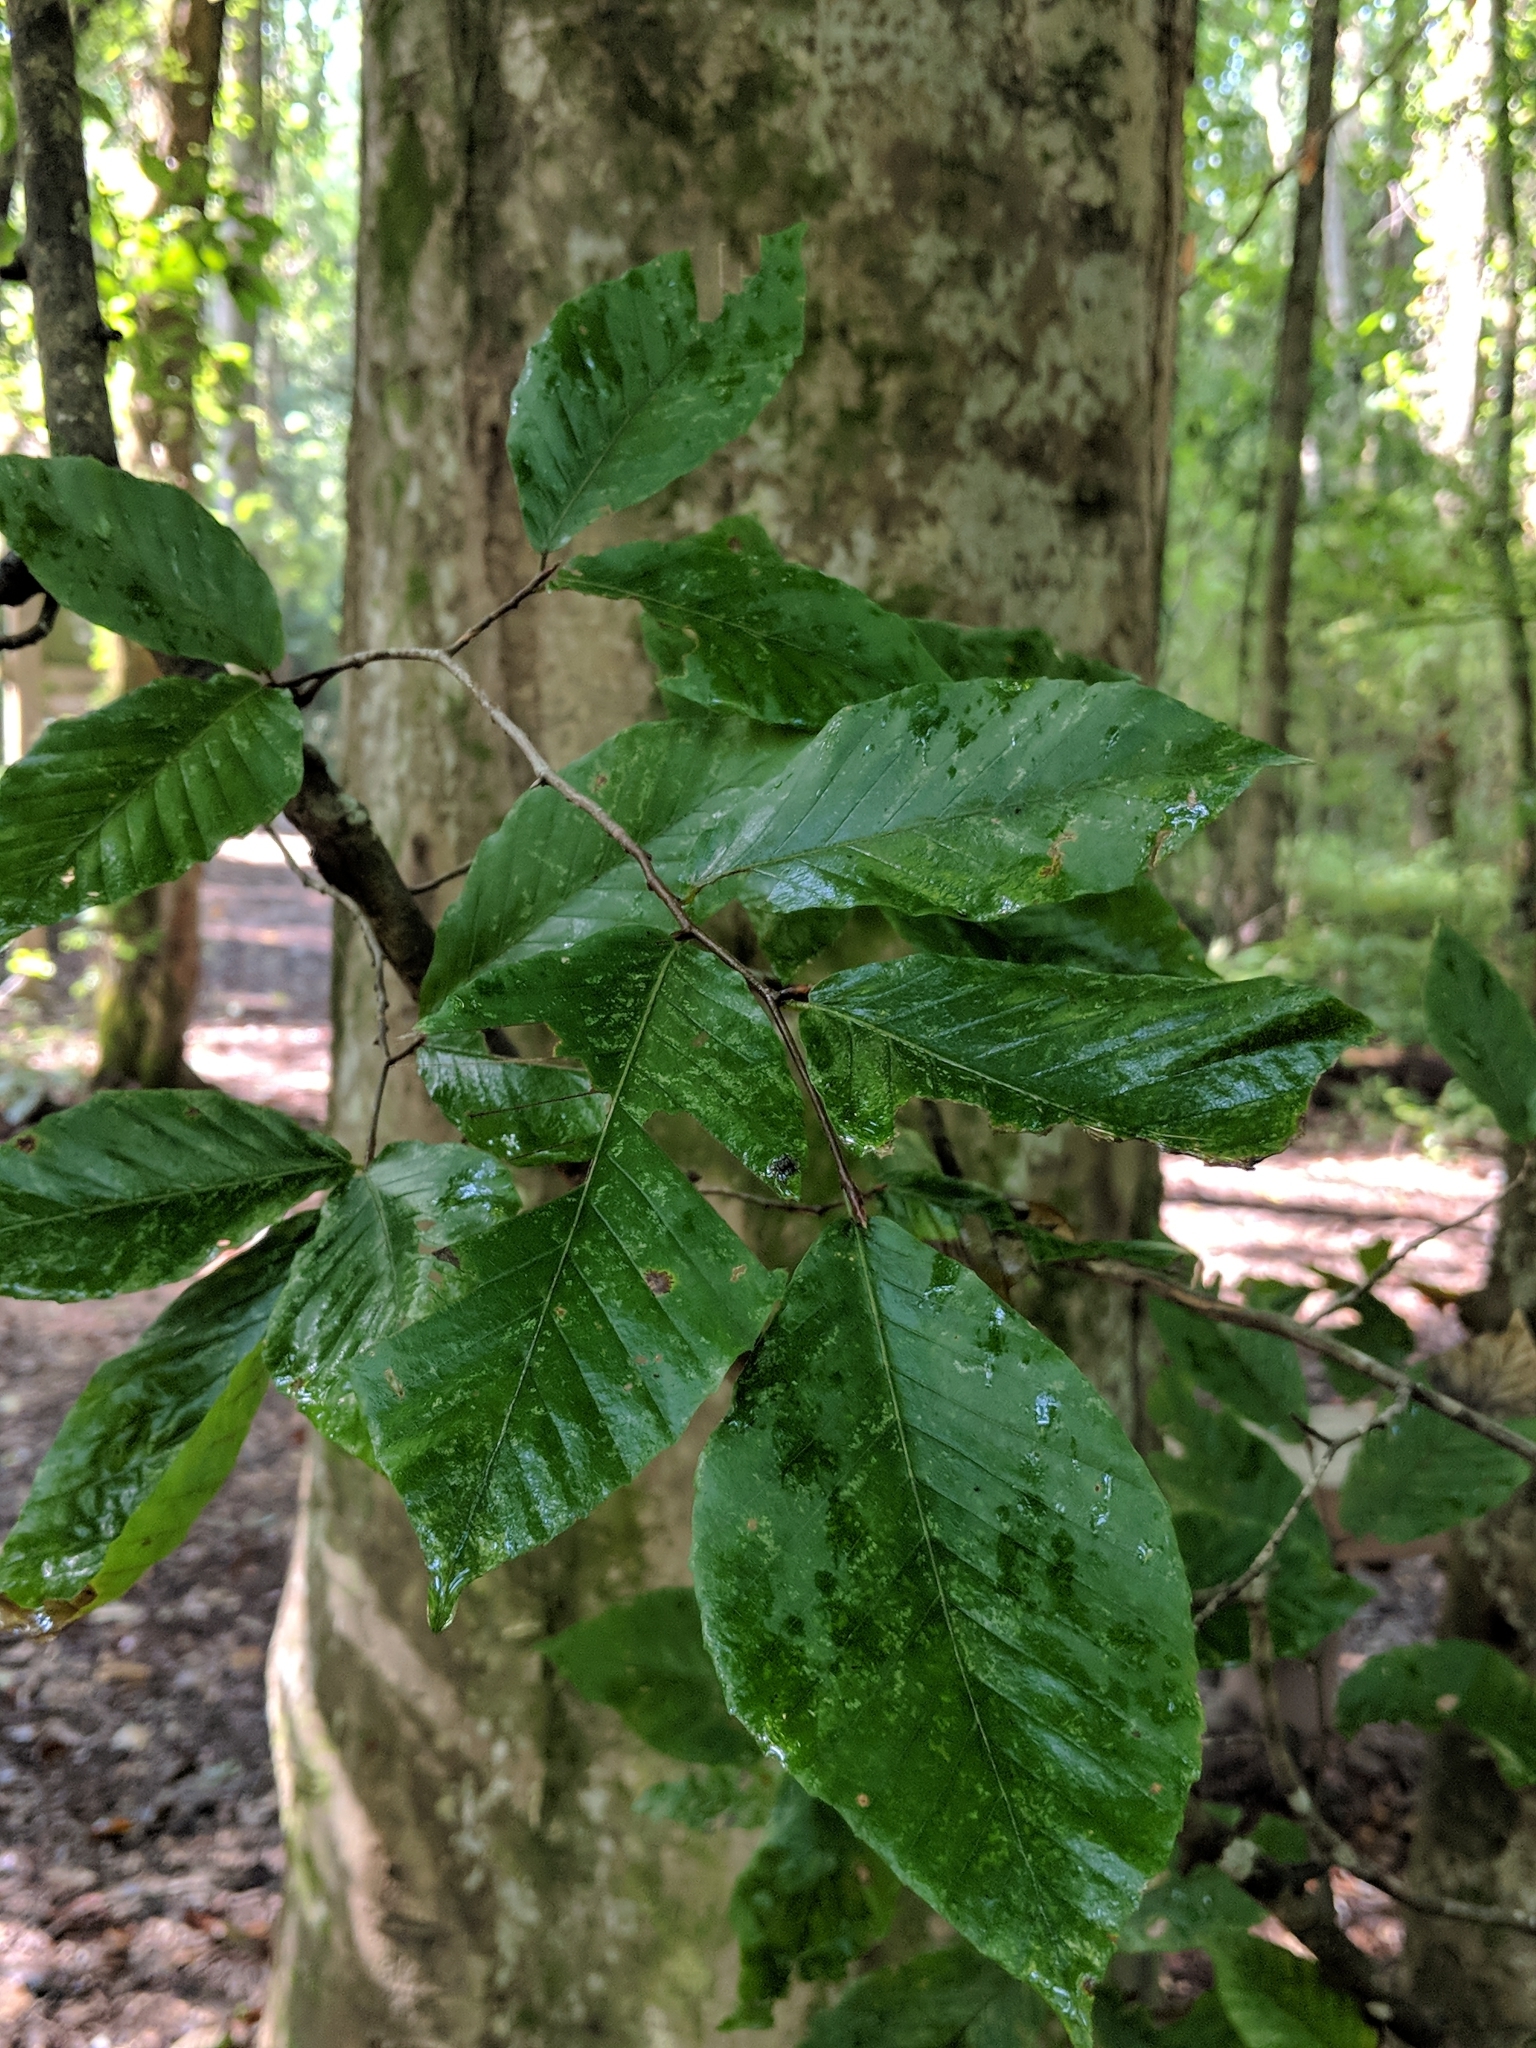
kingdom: Plantae
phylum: Tracheophyta
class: Magnoliopsida
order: Fagales
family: Fagaceae
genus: Fagus
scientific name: Fagus grandifolia
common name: American beech
